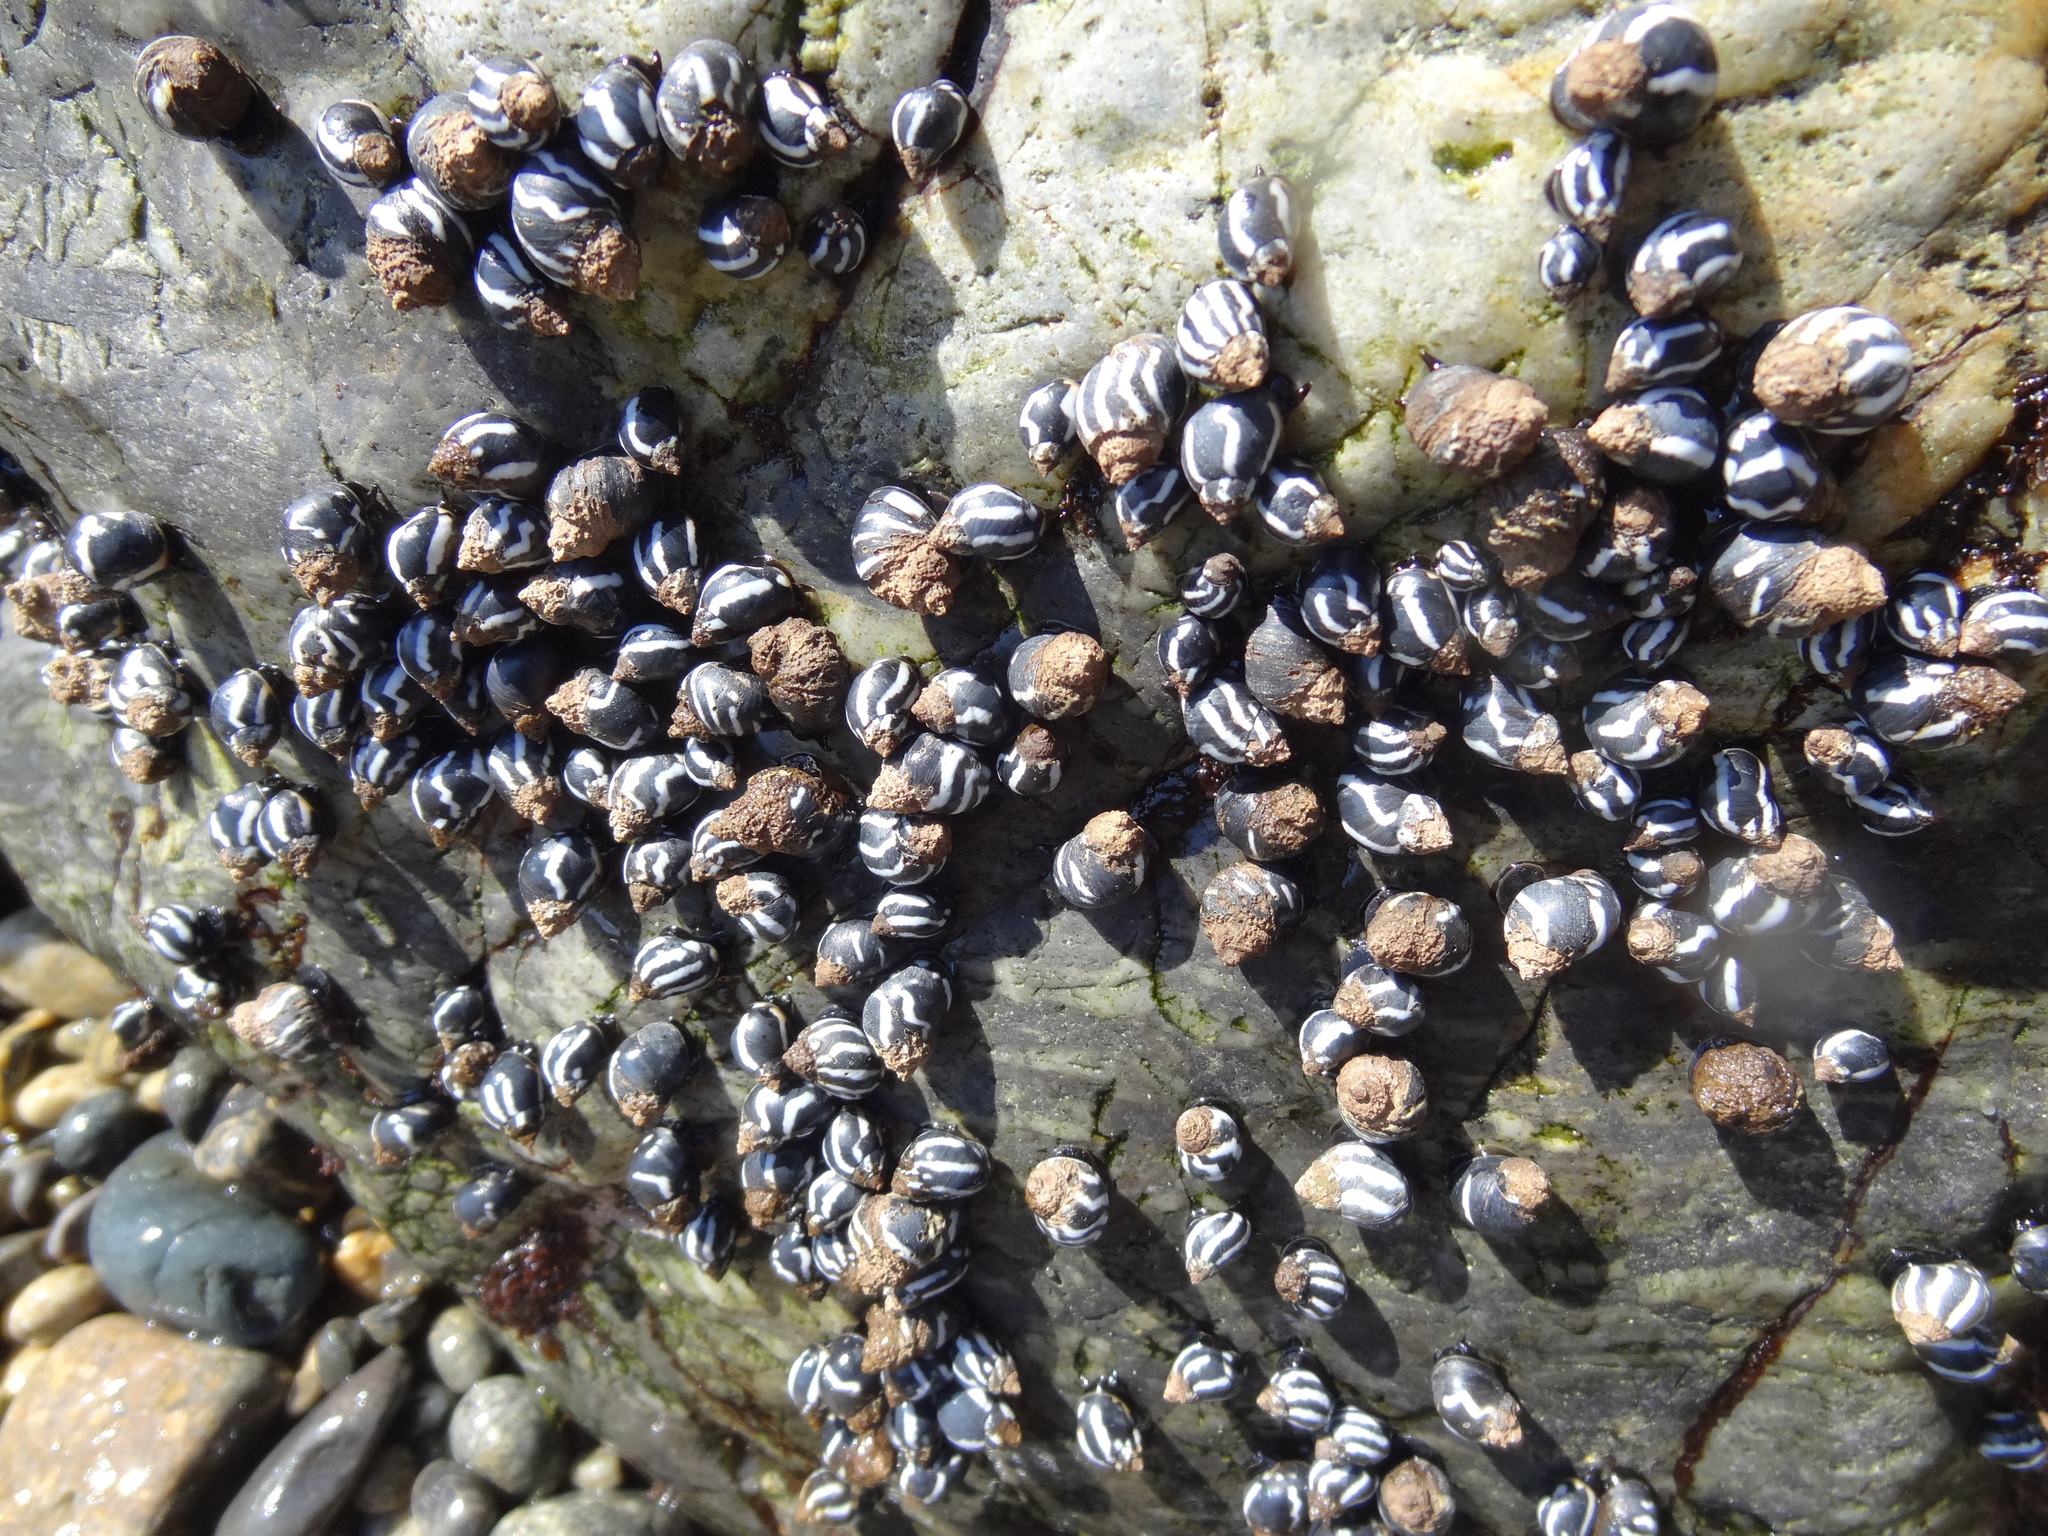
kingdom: Animalia
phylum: Mollusca
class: Gastropoda
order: Littorinimorpha
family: Littorinidae
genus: Echinolittorina
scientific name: Echinolittorina peruviana
